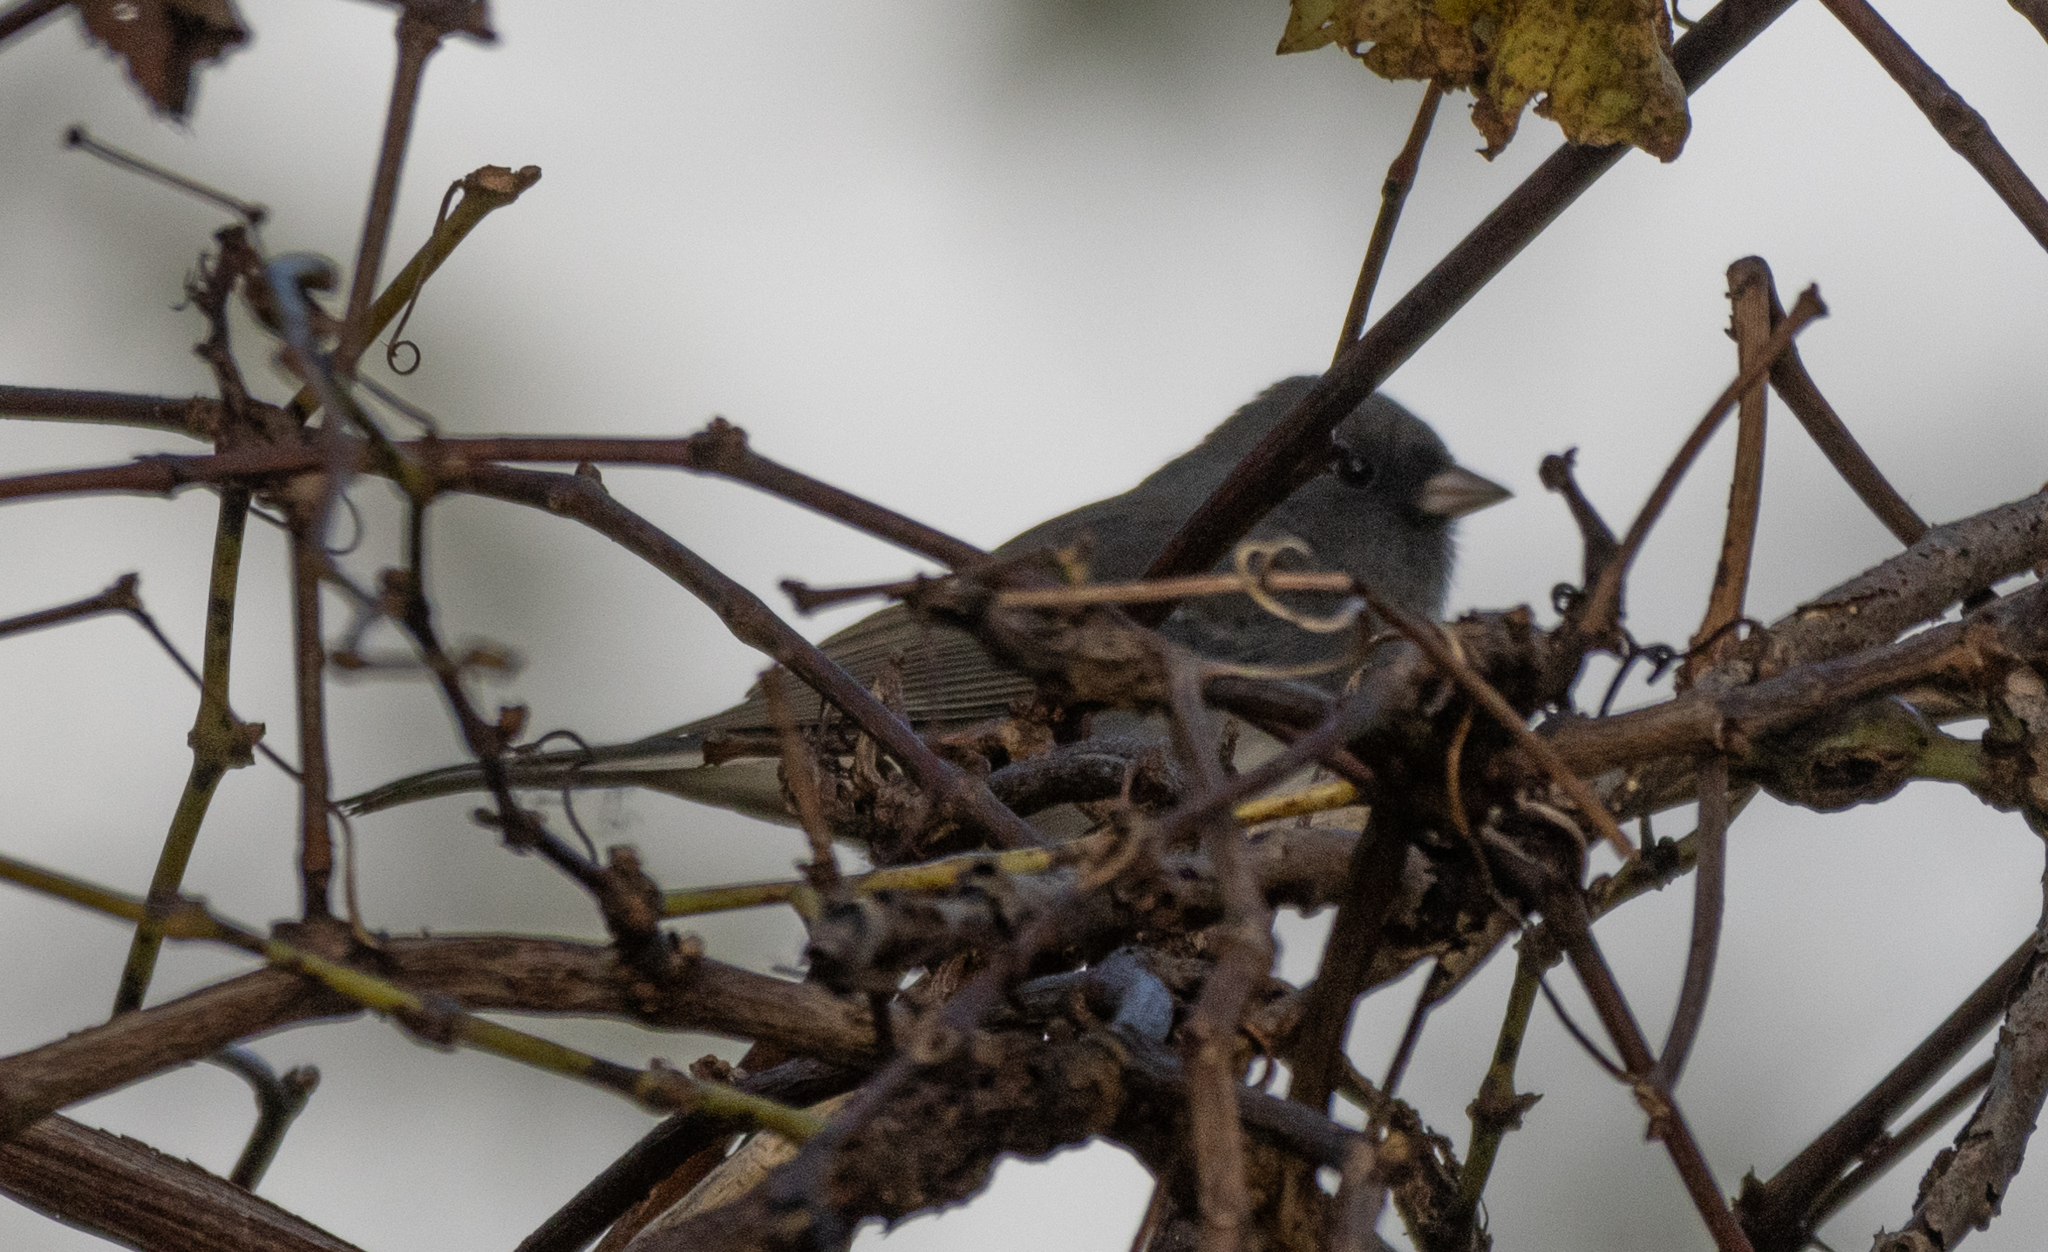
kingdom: Animalia
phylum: Chordata
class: Aves
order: Passeriformes
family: Passerellidae
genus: Junco
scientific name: Junco hyemalis
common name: Dark-eyed junco
